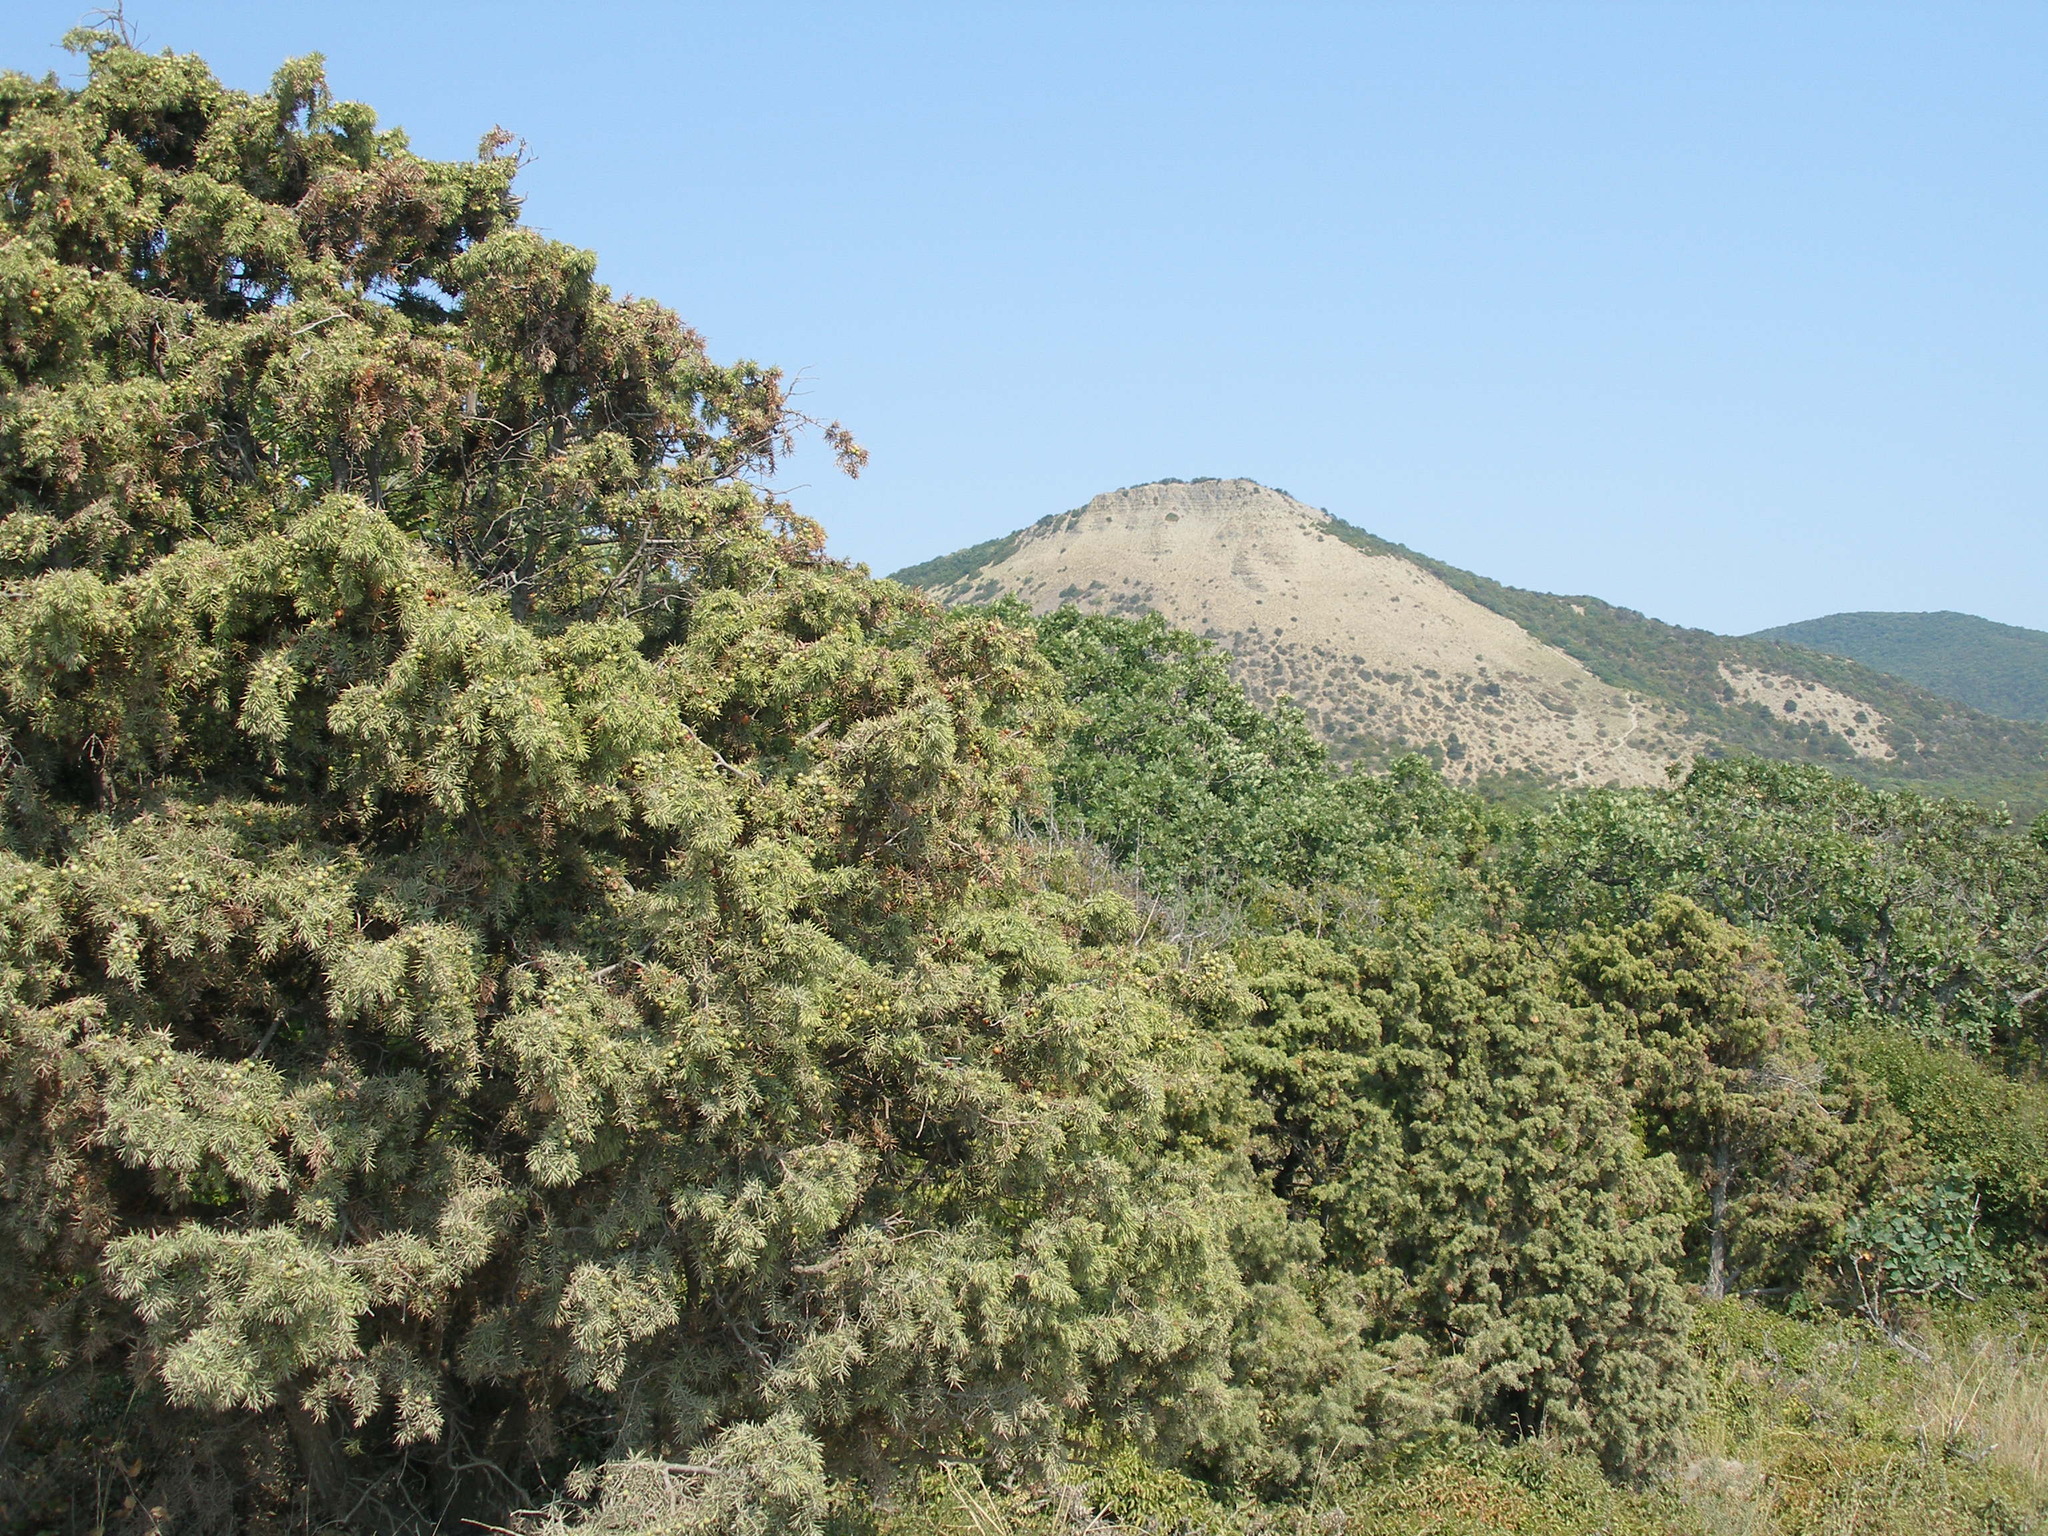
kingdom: Plantae
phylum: Tracheophyta
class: Pinopsida
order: Pinales
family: Cupressaceae
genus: Juniperus
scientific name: Juniperus oxycedrus
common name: Prickly juniper
